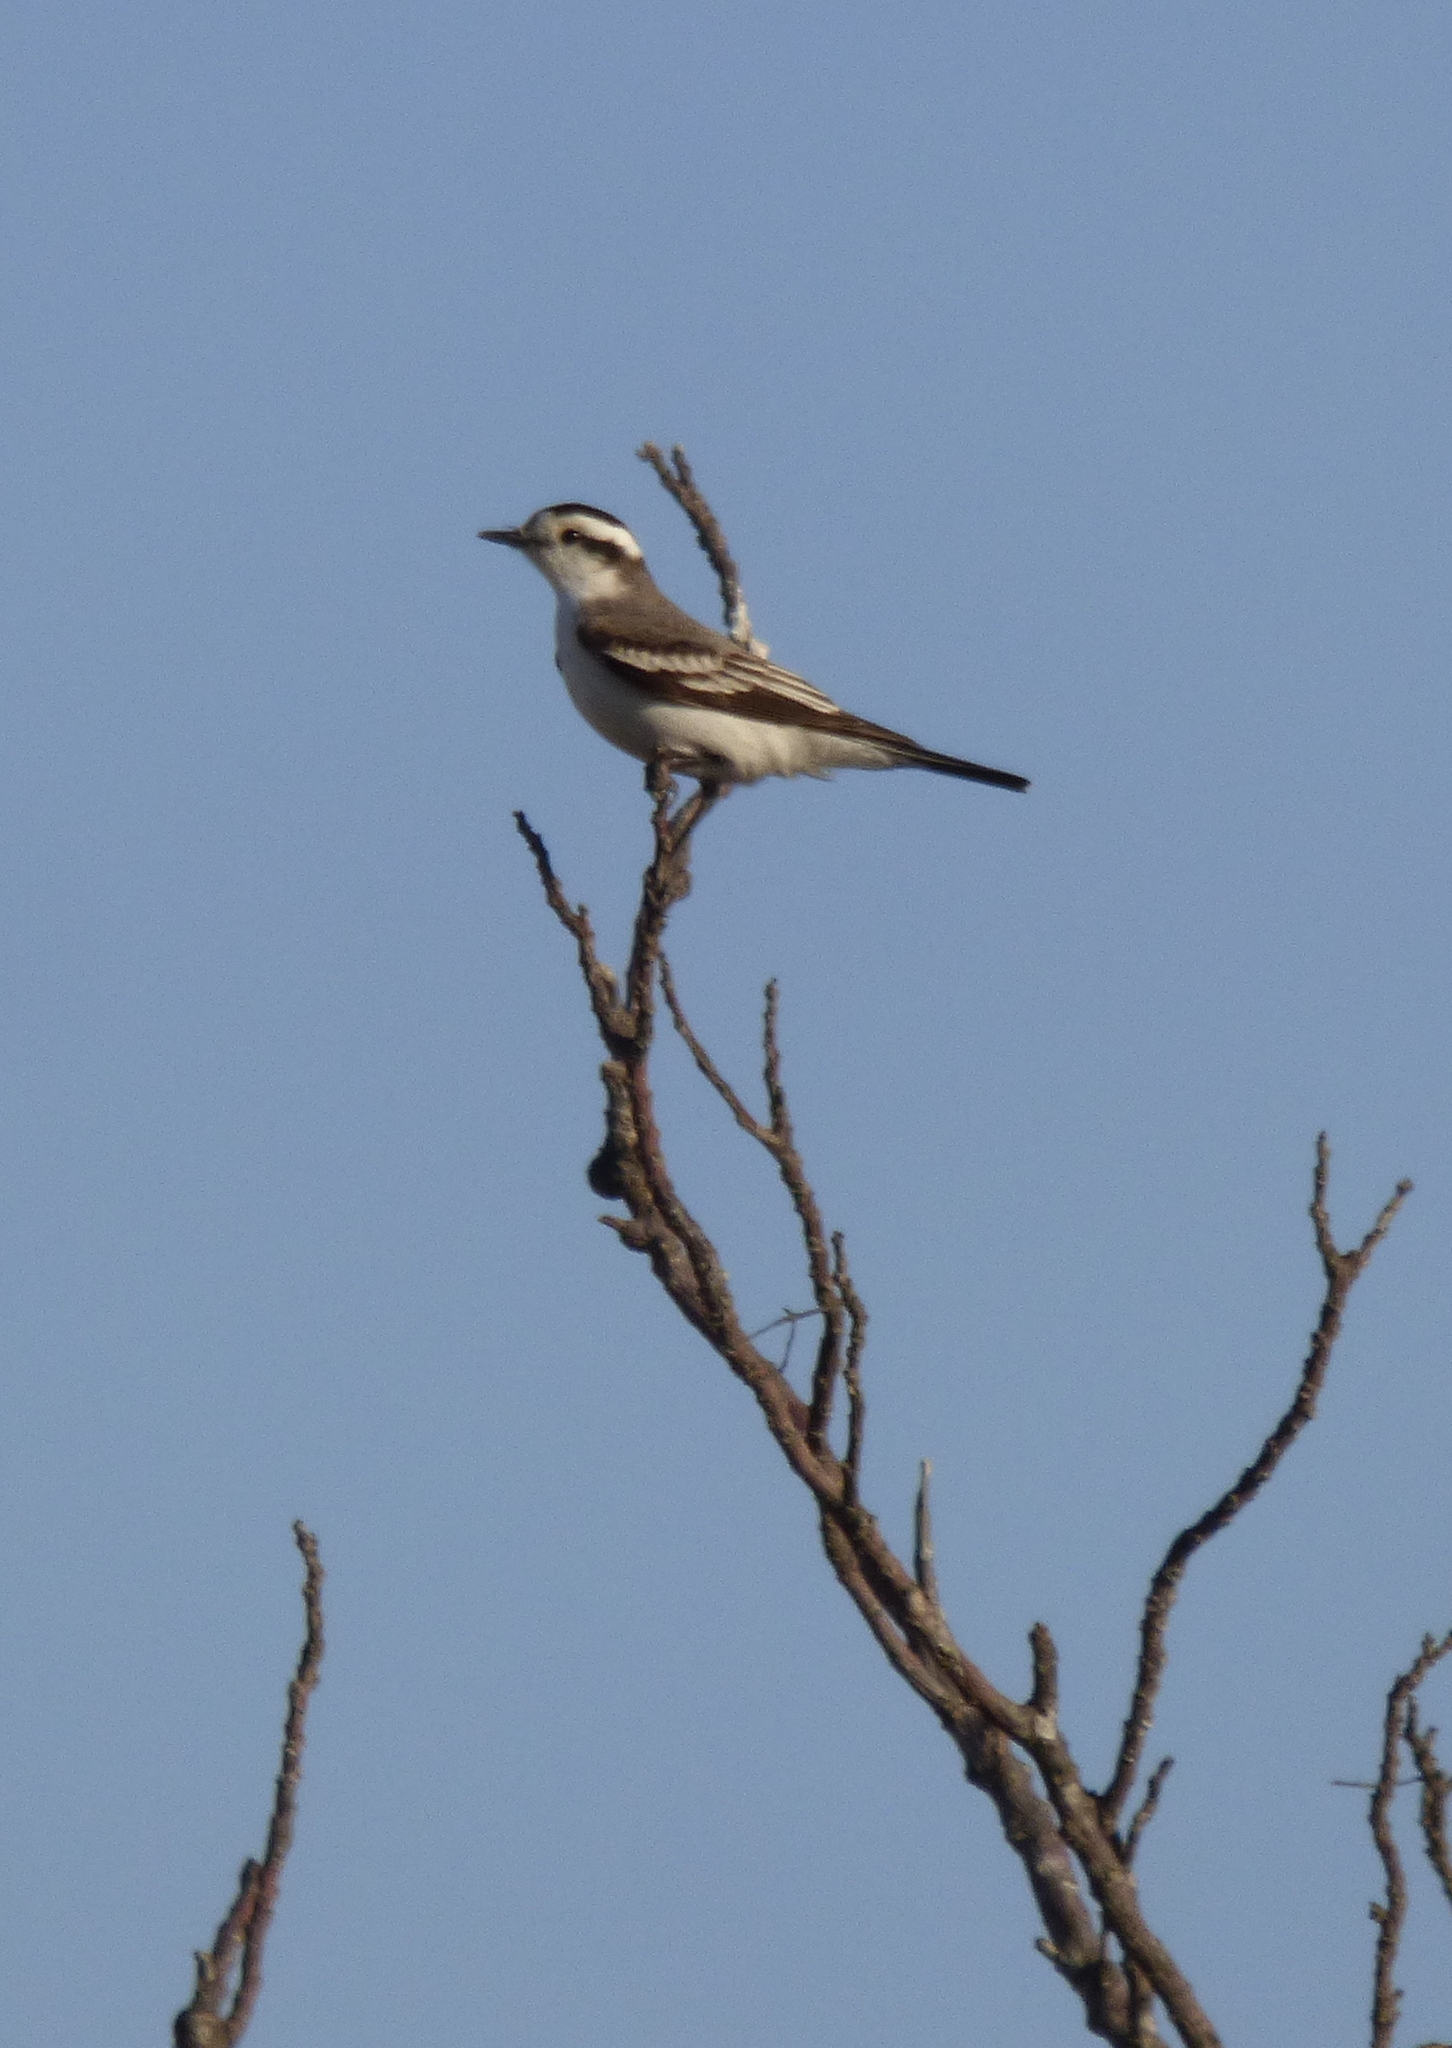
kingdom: Animalia
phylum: Chordata
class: Aves
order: Passeriformes
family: Tyrannidae
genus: Xolmis
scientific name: Xolmis coronatus
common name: Black-crowned monjita
